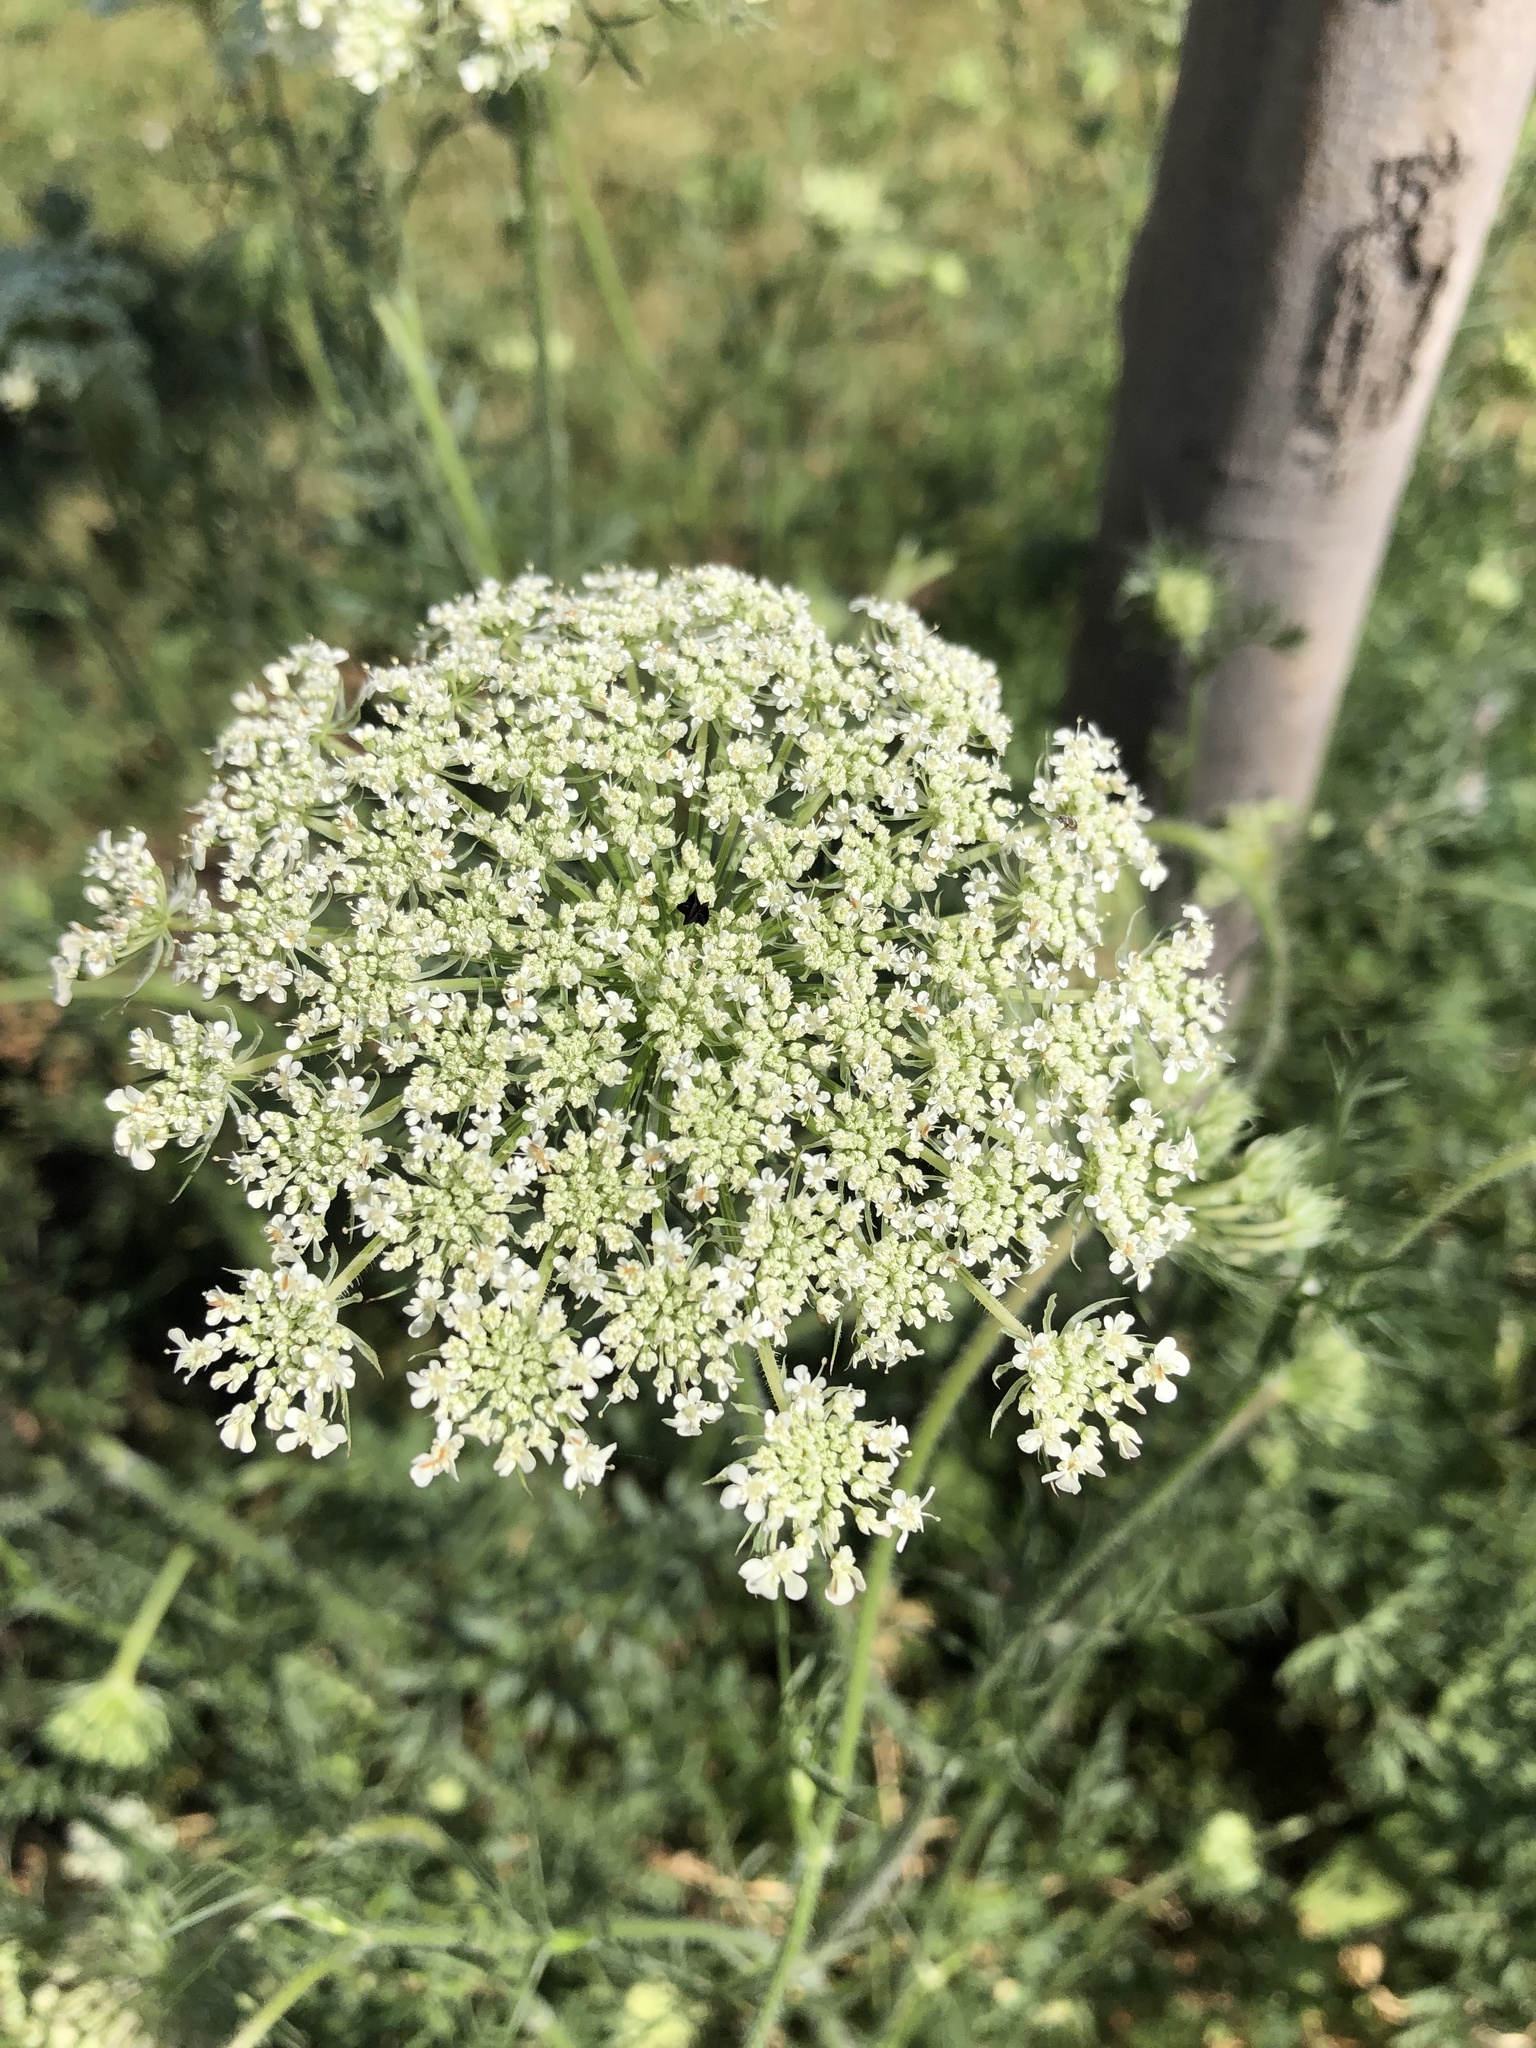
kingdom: Plantae
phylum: Tracheophyta
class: Magnoliopsida
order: Apiales
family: Apiaceae
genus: Daucus
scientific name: Daucus carota
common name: Wild carrot
